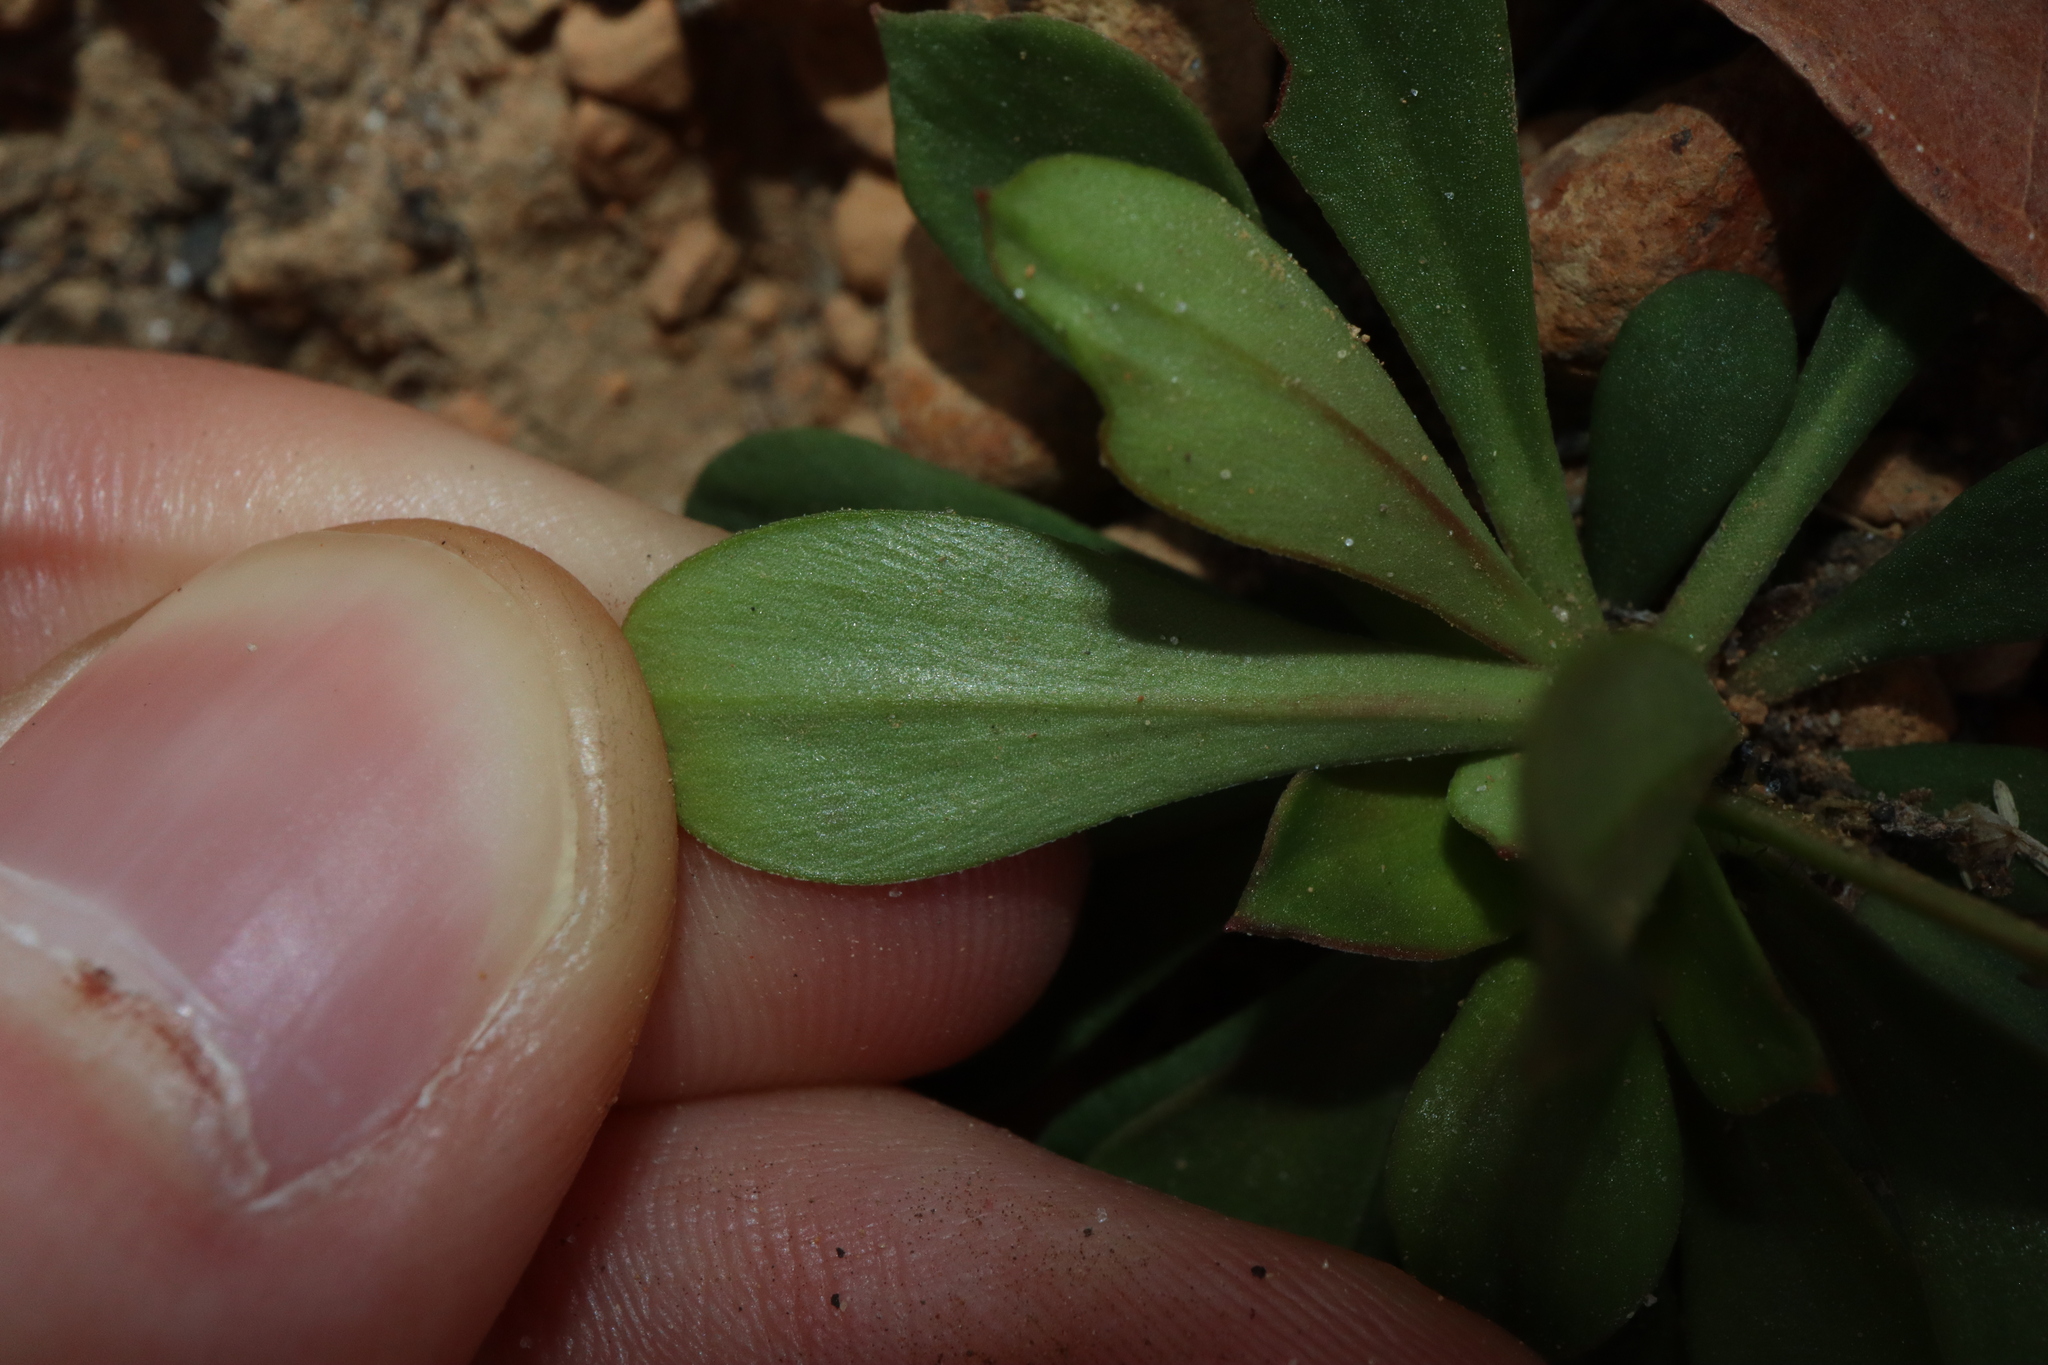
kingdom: Plantae
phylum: Tracheophyta
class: Magnoliopsida
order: Asterales
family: Stylidiaceae
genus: Stylidium
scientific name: Stylidium amoenum
